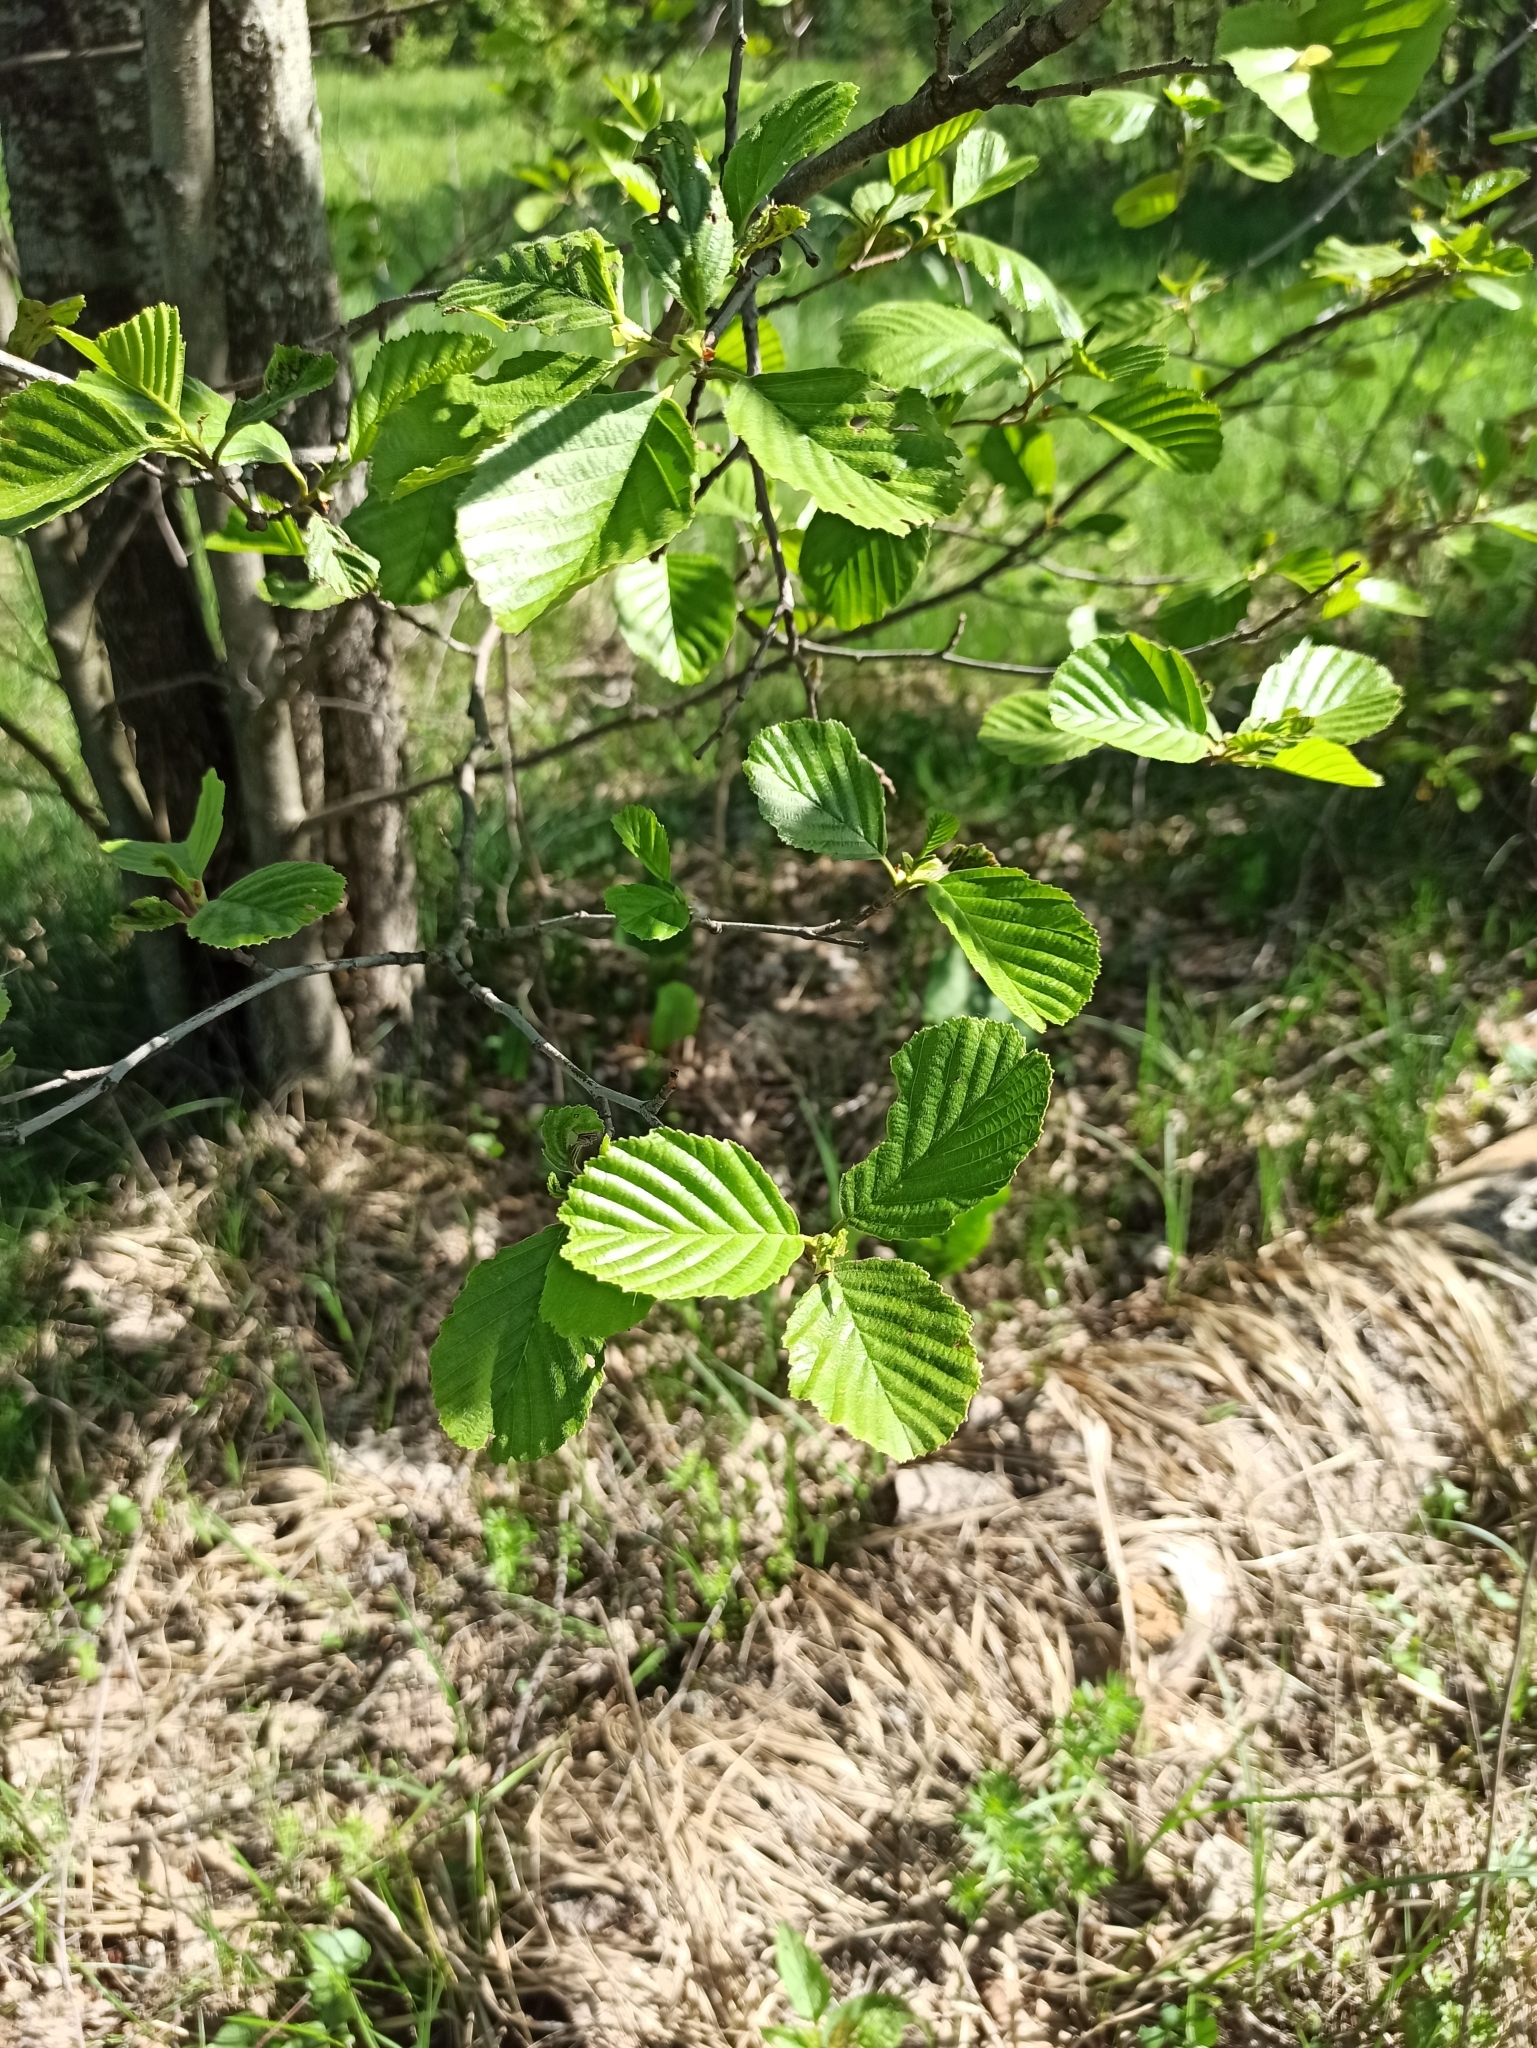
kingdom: Plantae
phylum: Tracheophyta
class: Magnoliopsida
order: Fagales
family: Betulaceae
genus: Alnus
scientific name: Alnus glutinosa
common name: Black alder
